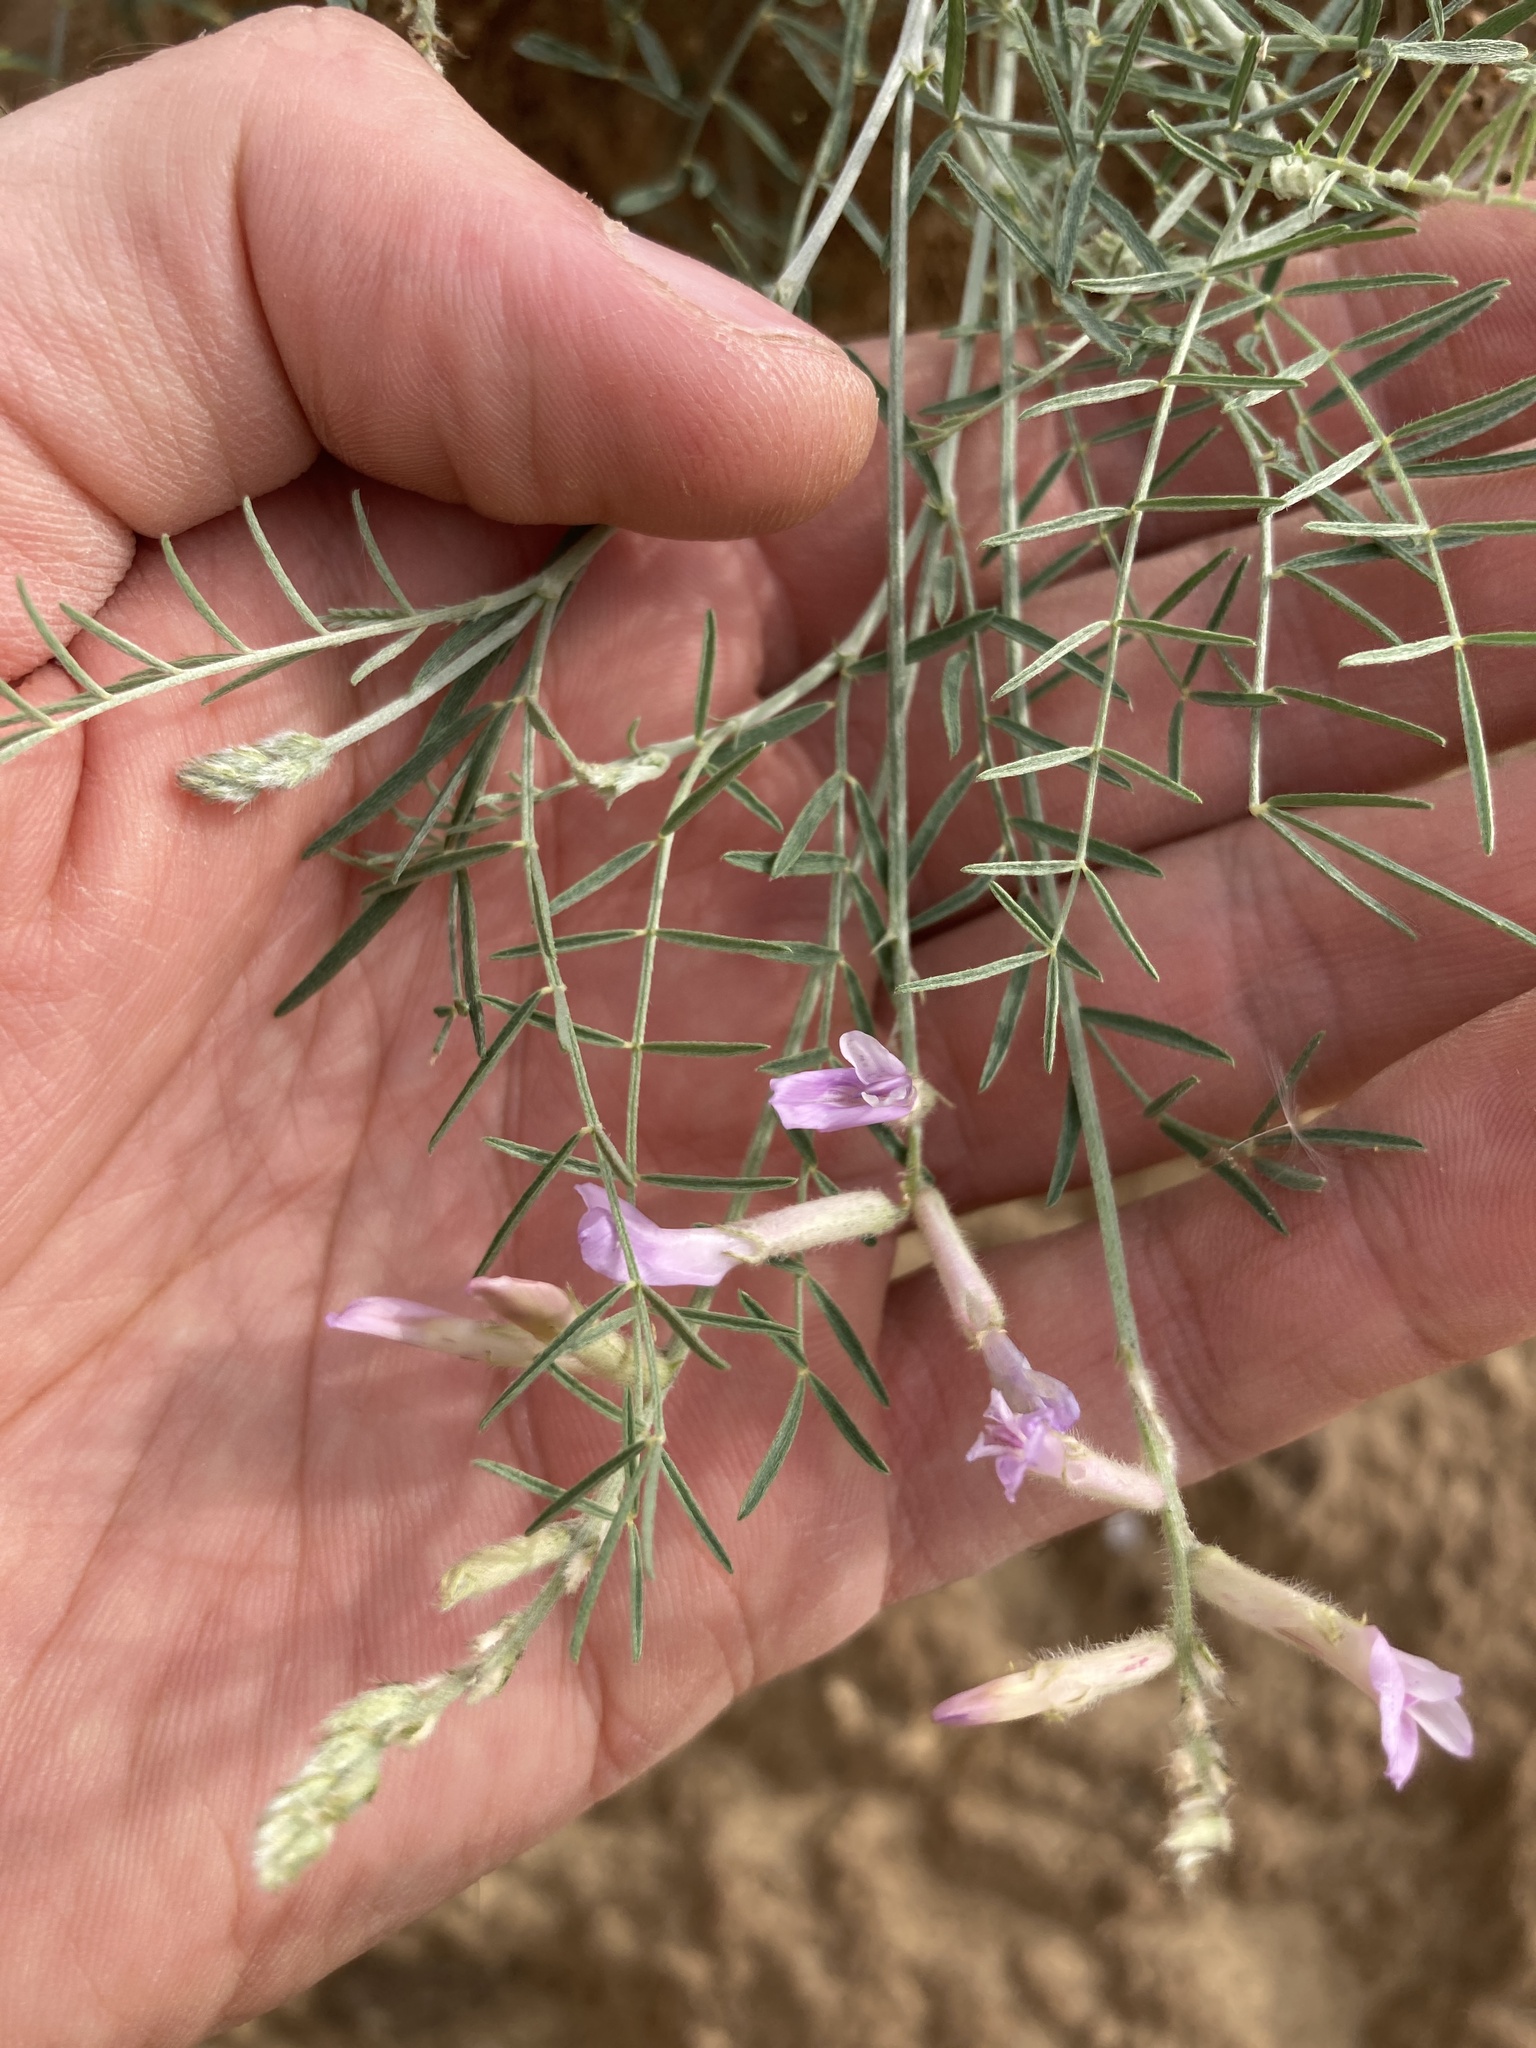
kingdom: Plantae
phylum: Tracheophyta
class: Magnoliopsida
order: Fabales
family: Fabaceae
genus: Astragalus
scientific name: Astragalus varius
